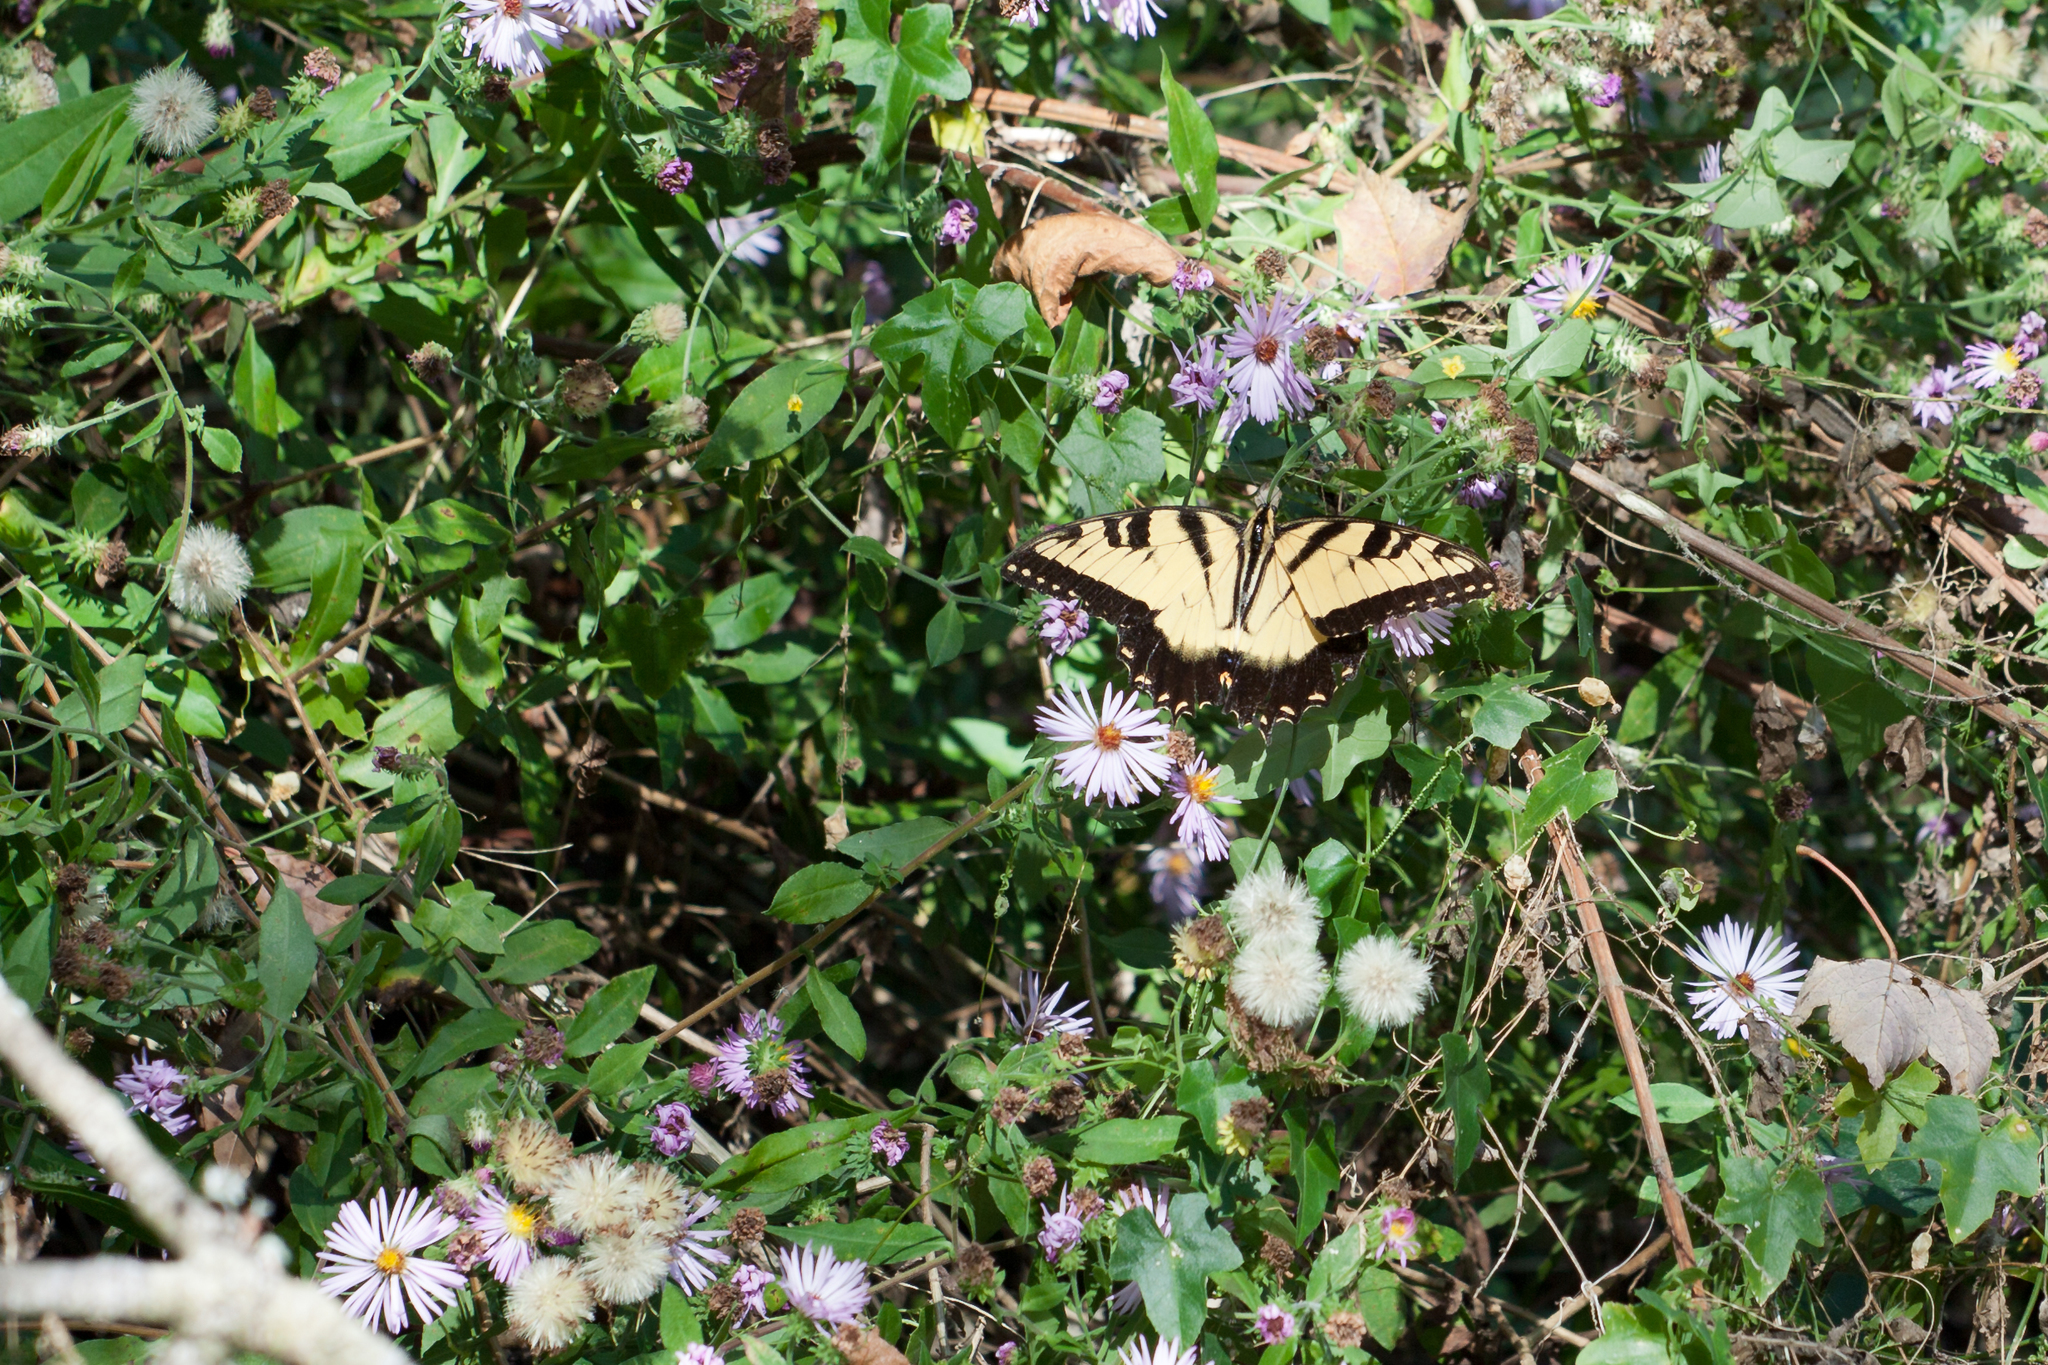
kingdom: Animalia
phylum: Arthropoda
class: Insecta
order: Lepidoptera
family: Papilionidae
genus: Papilio
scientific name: Papilio glaucus
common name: Tiger swallowtail
